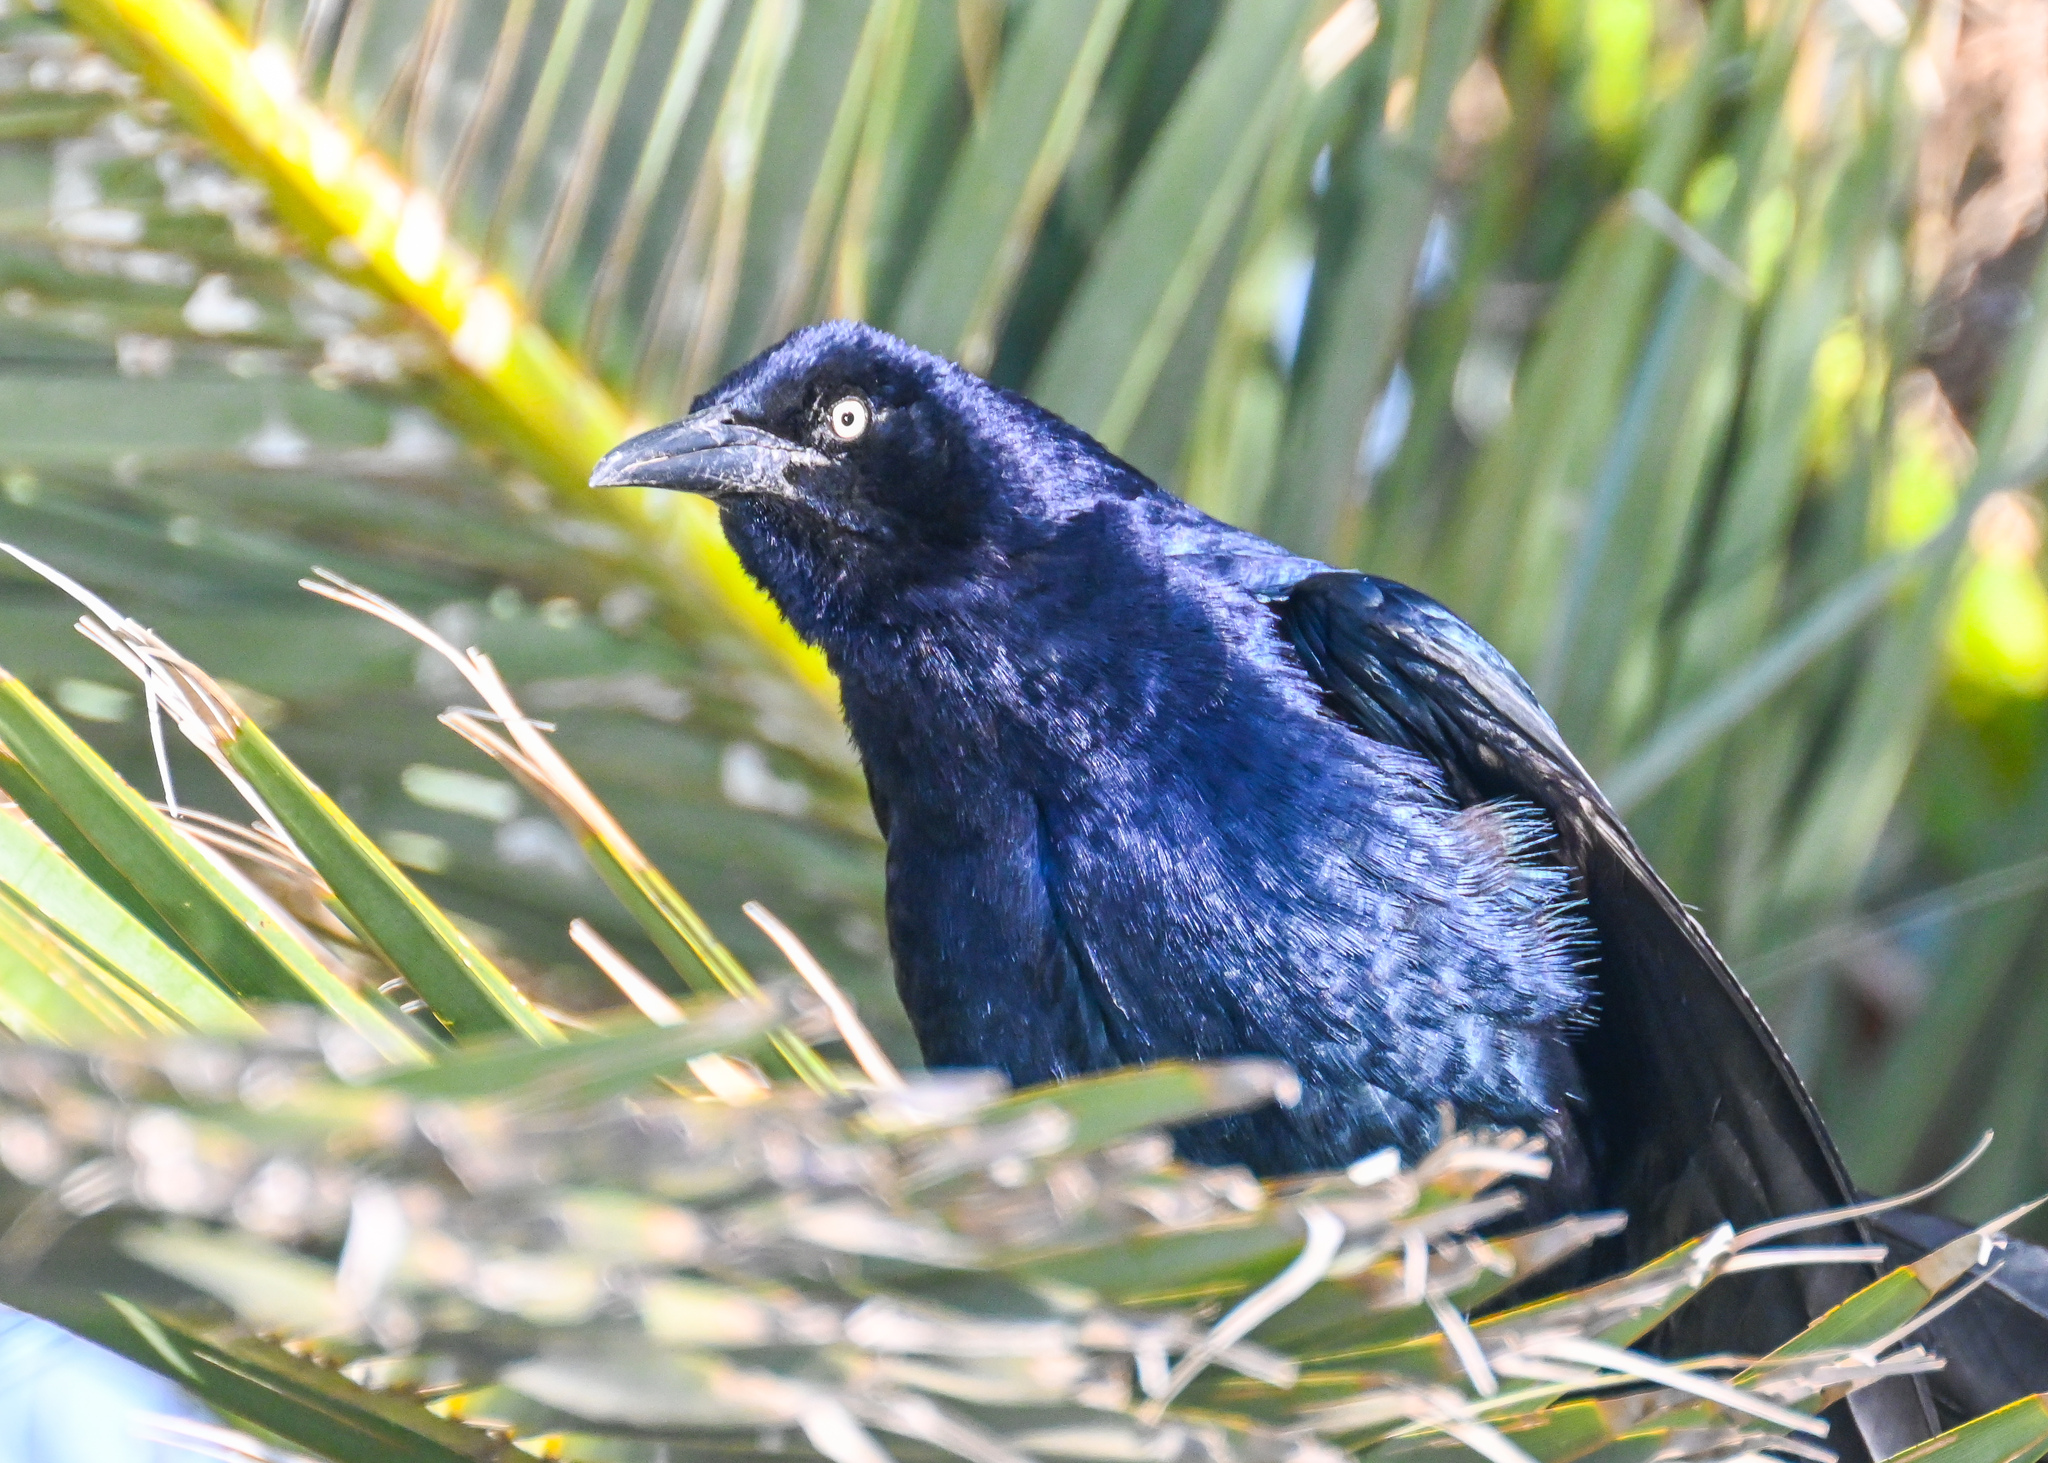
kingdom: Animalia
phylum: Chordata
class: Aves
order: Passeriformes
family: Icteridae
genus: Quiscalus
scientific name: Quiscalus mexicanus
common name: Great-tailed grackle
